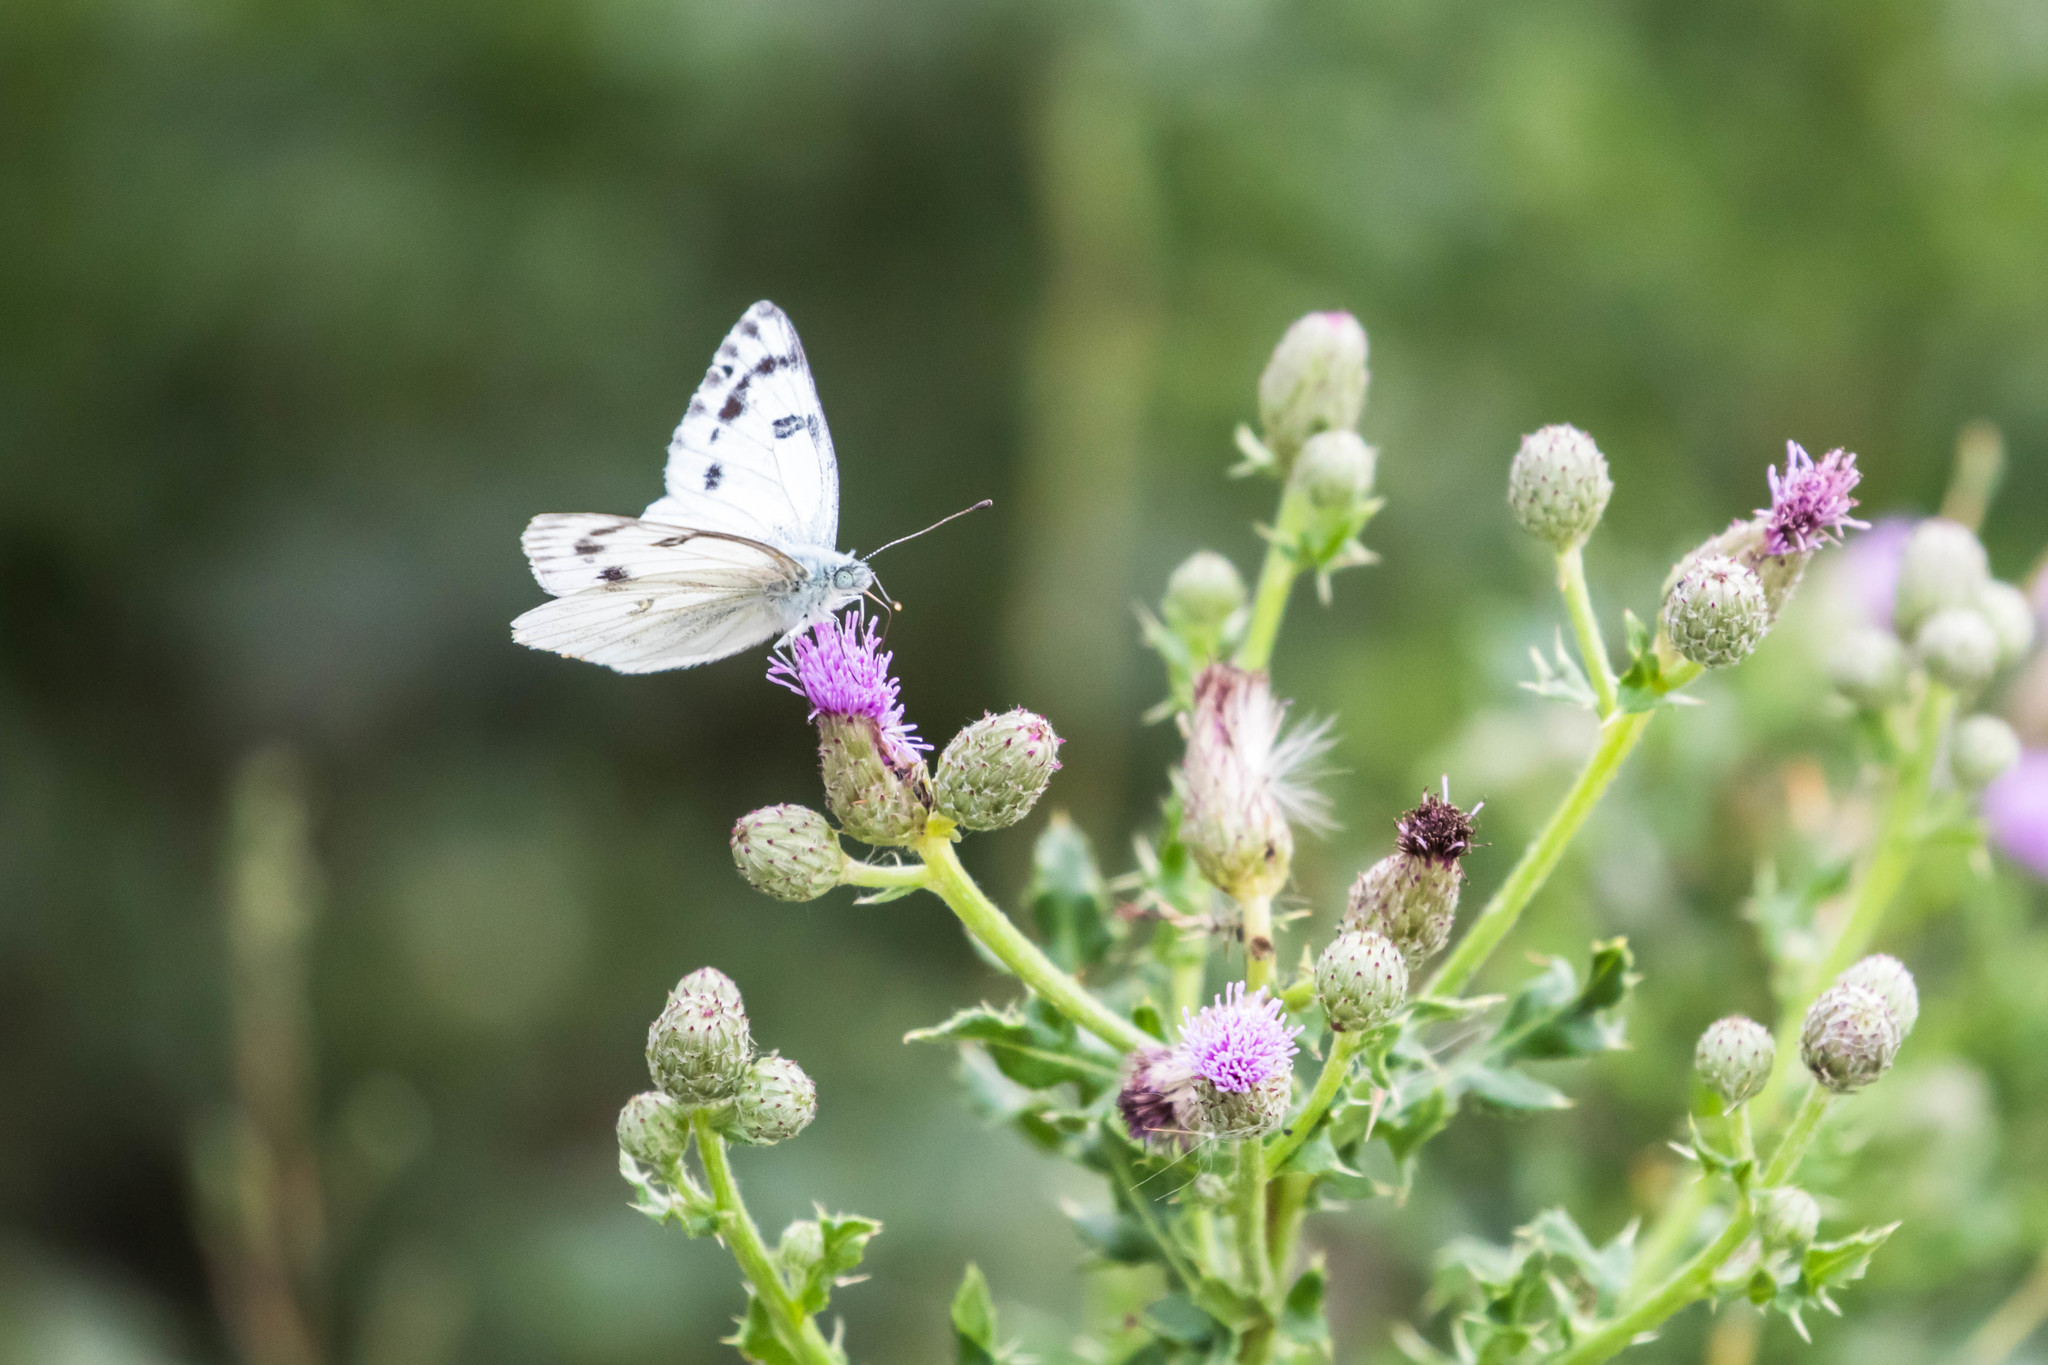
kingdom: Animalia
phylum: Arthropoda
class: Insecta
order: Lepidoptera
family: Pieridae
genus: Pontia
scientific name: Pontia occidentalis
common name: Western white
